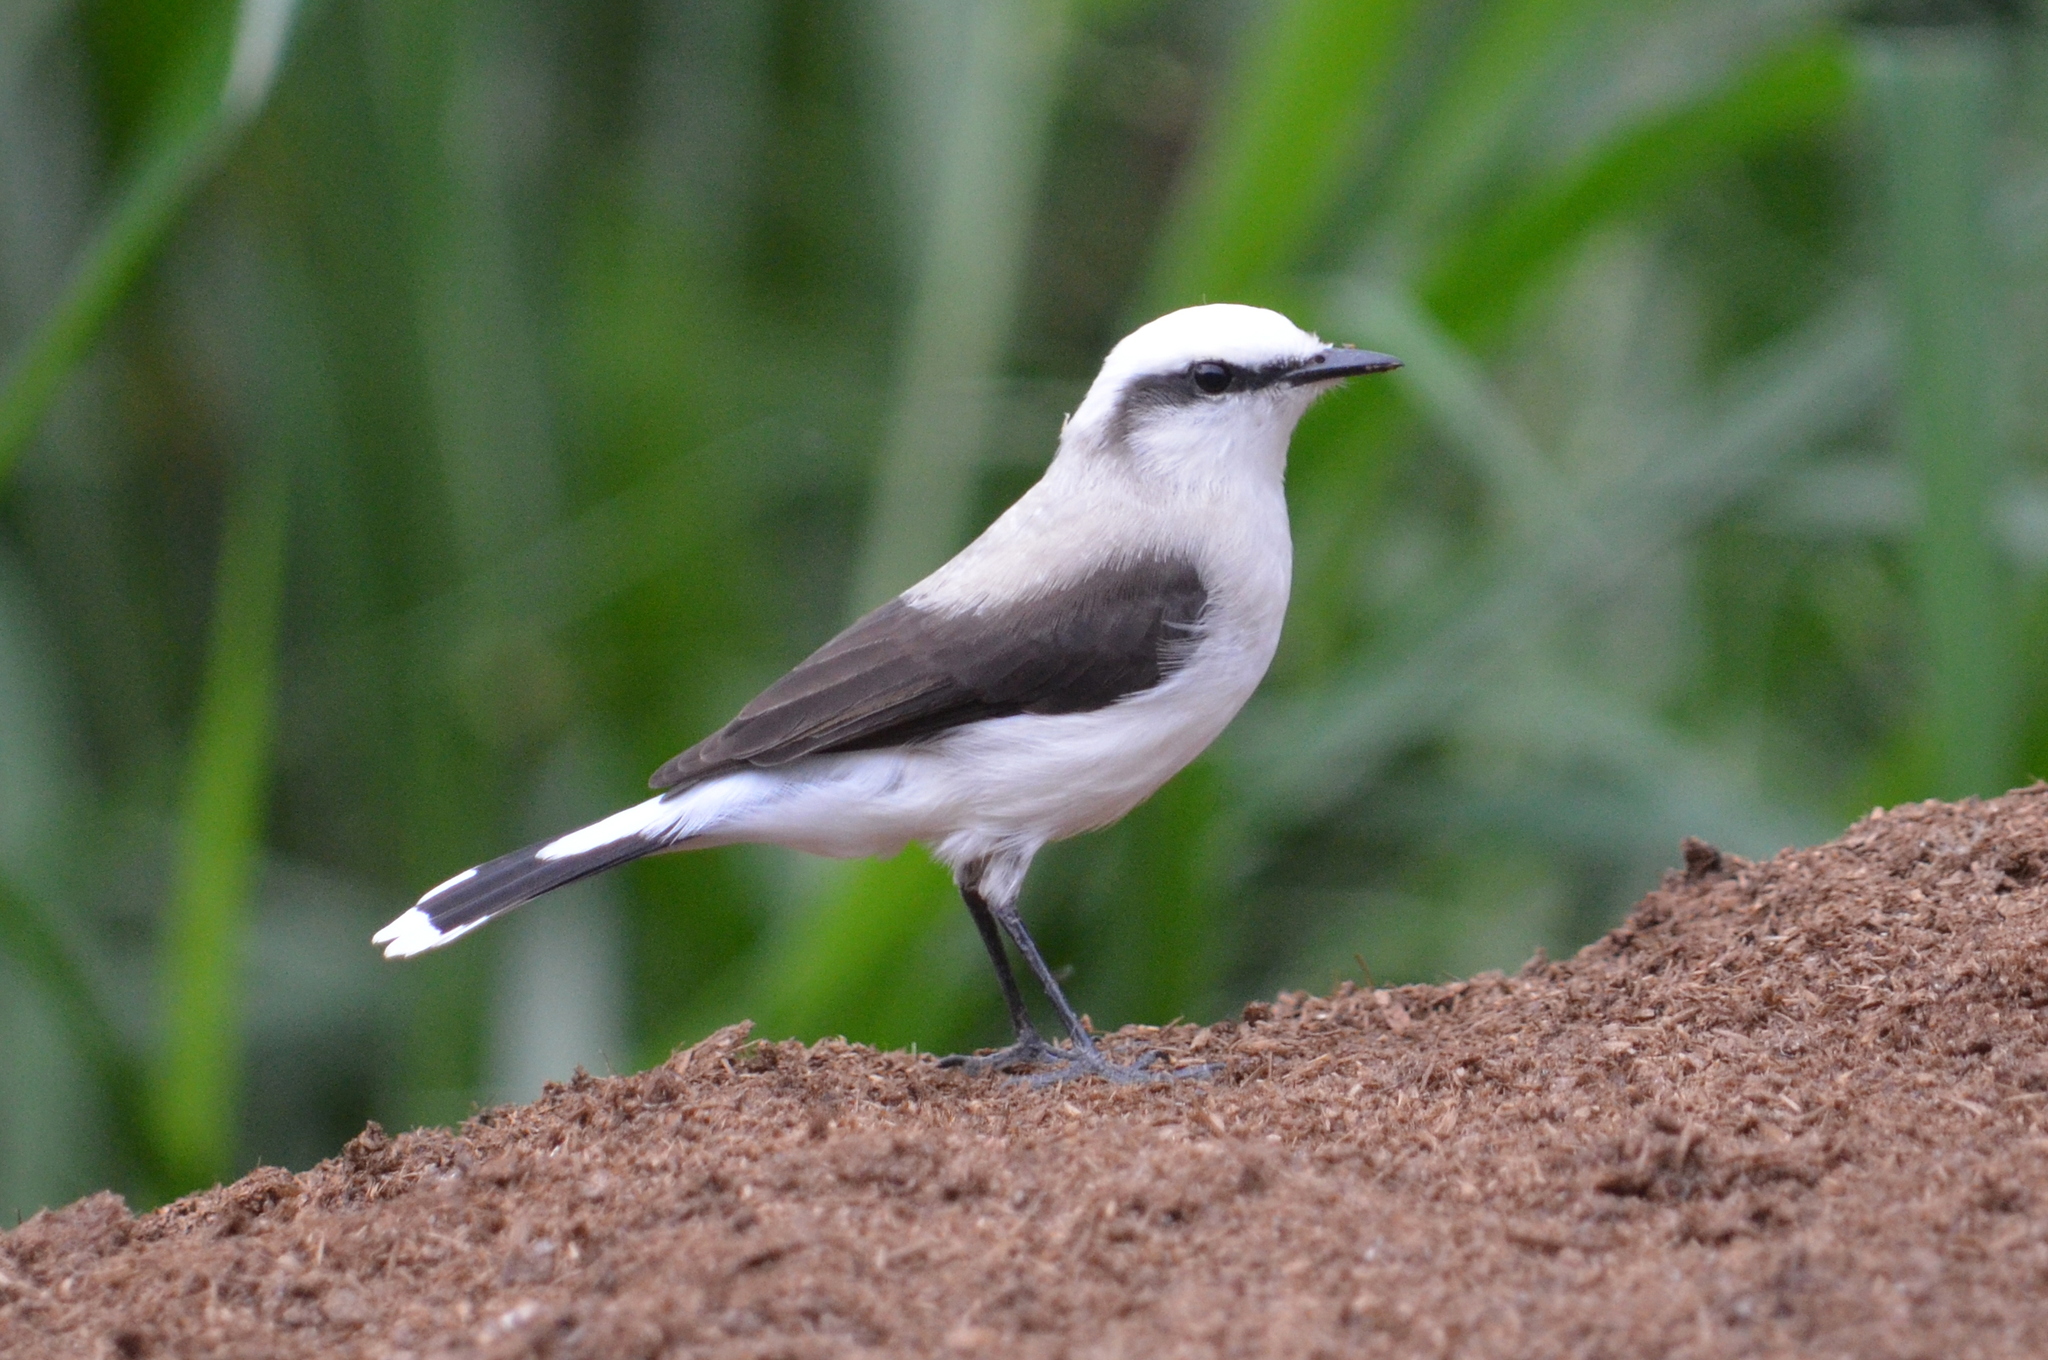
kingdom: Animalia
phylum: Chordata
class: Aves
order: Passeriformes
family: Tyrannidae
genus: Fluvicola
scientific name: Fluvicola nengeta
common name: Masked water tyrant
